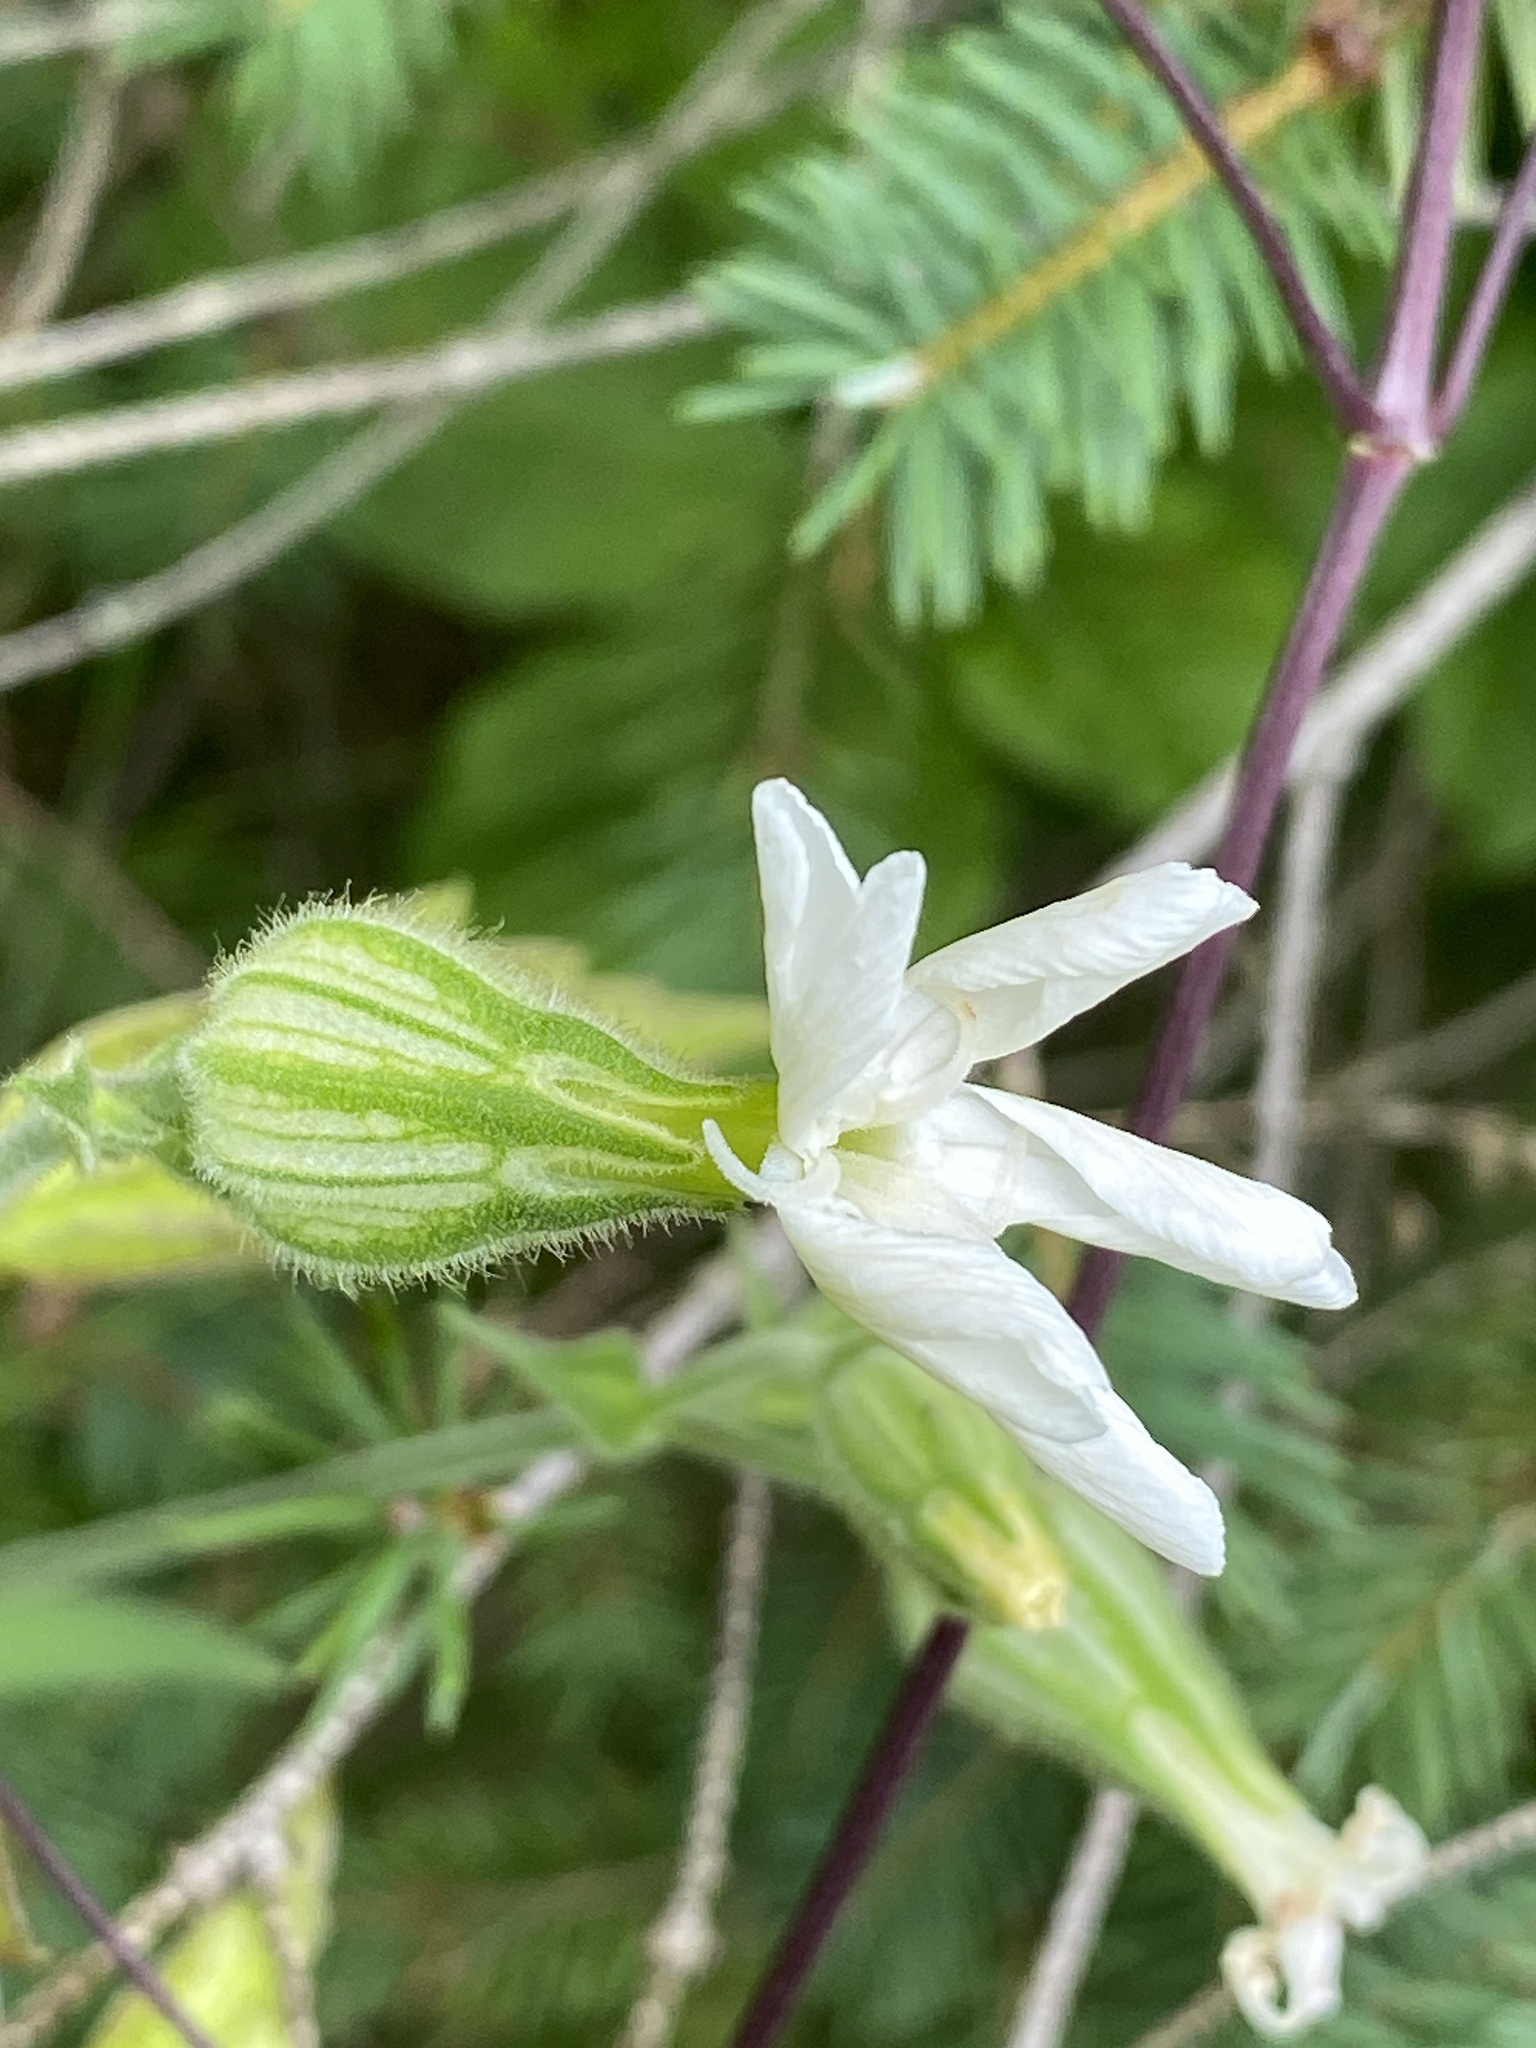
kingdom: Plantae
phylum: Tracheophyta
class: Magnoliopsida
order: Caryophyllales
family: Caryophyllaceae
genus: Silene
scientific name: Silene latifolia
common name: White campion
